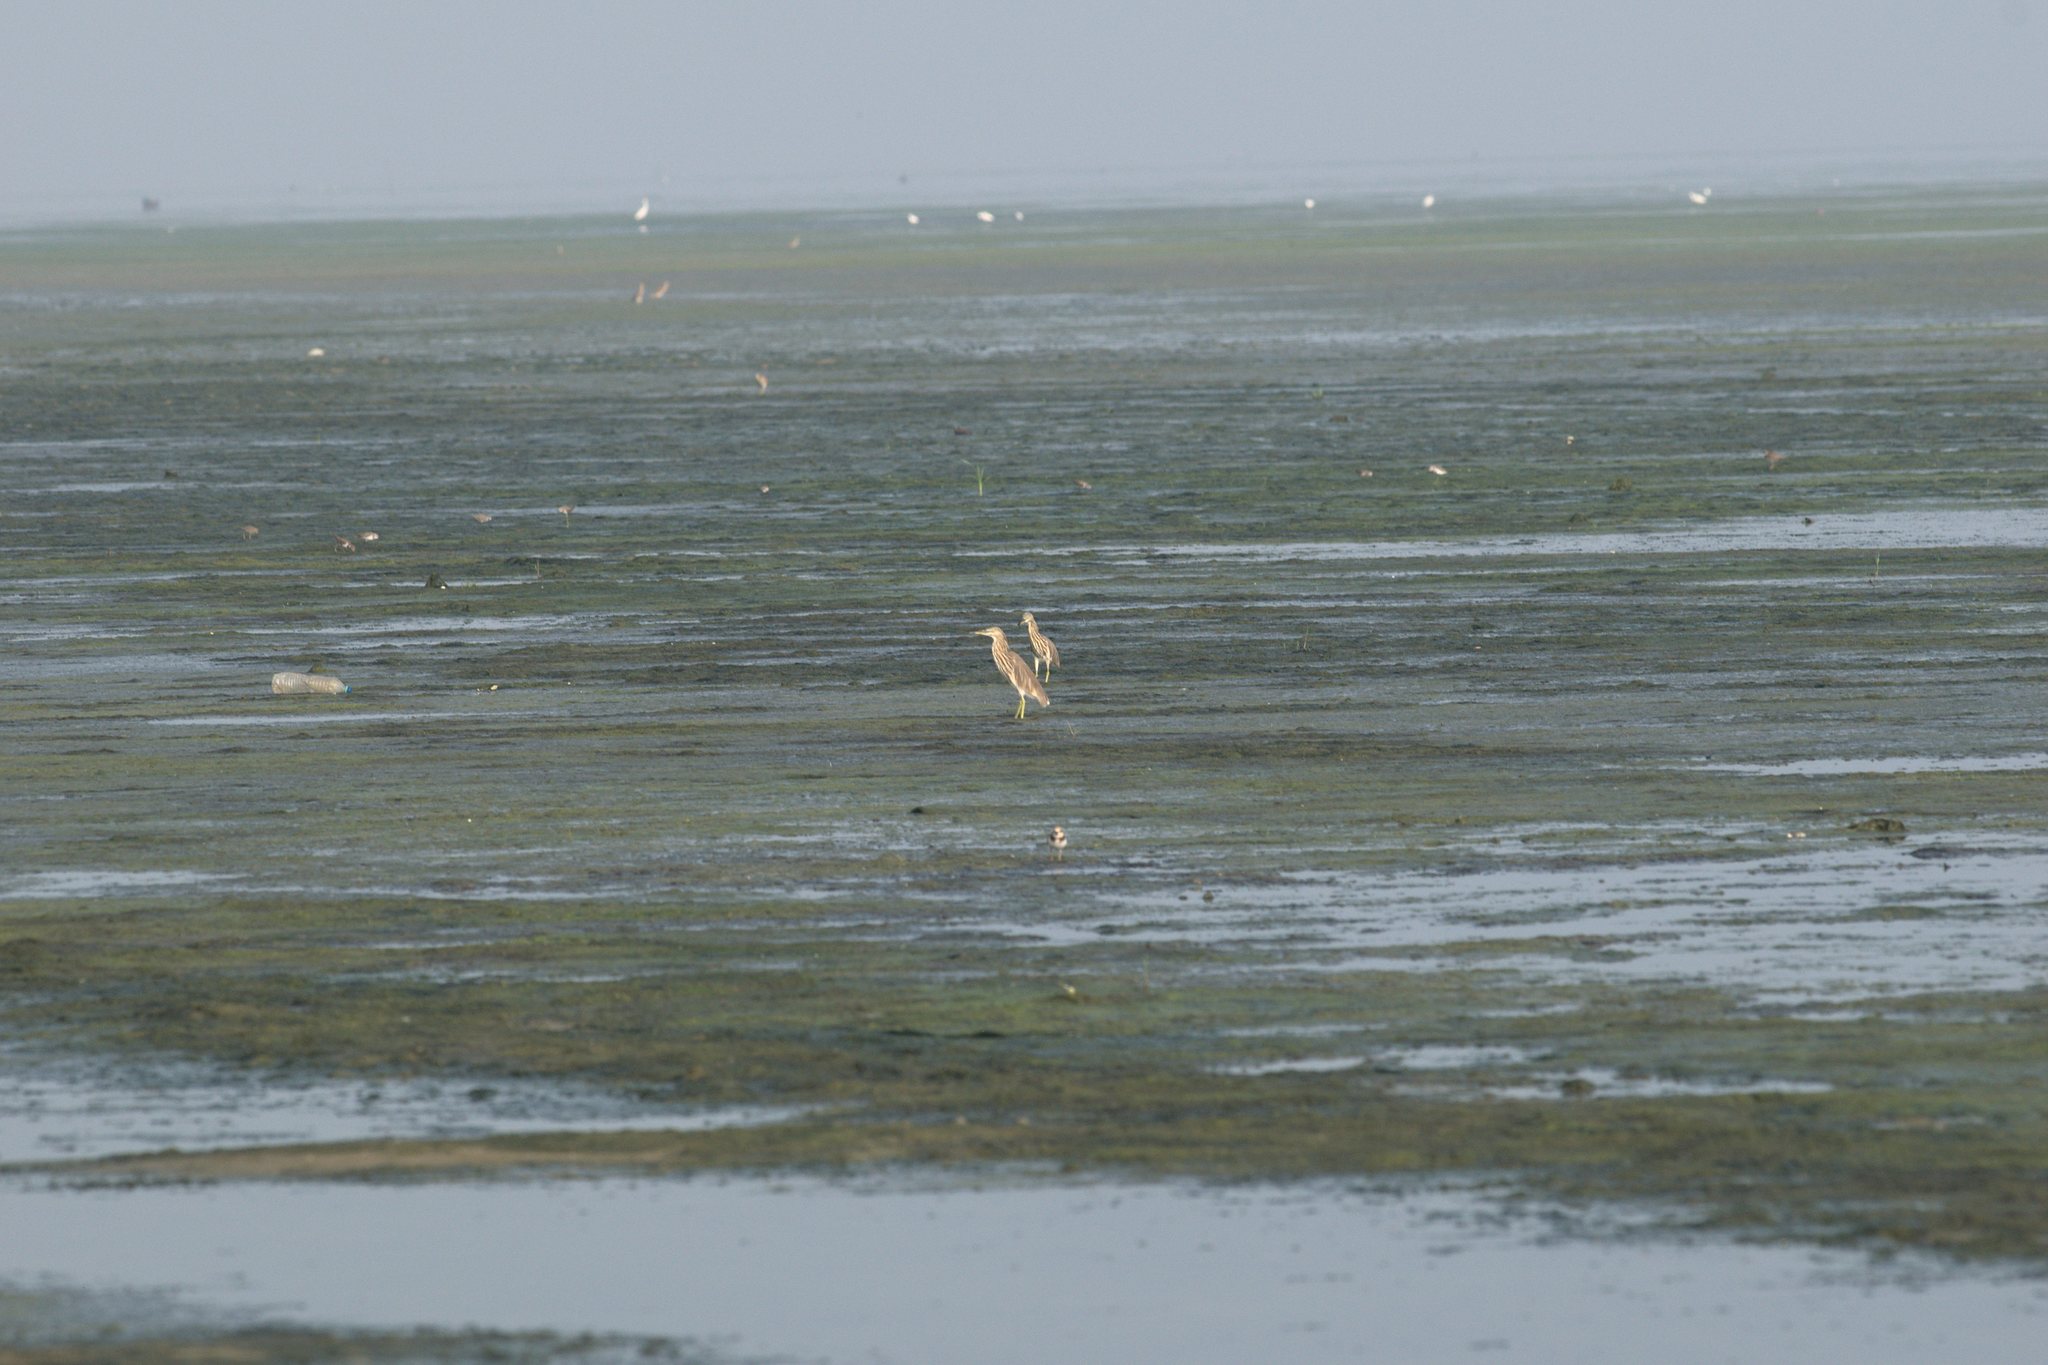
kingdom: Animalia
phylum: Chordata
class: Aves
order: Pelecaniformes
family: Ardeidae
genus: Ardeola
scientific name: Ardeola grayii
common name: Indian pond heron
